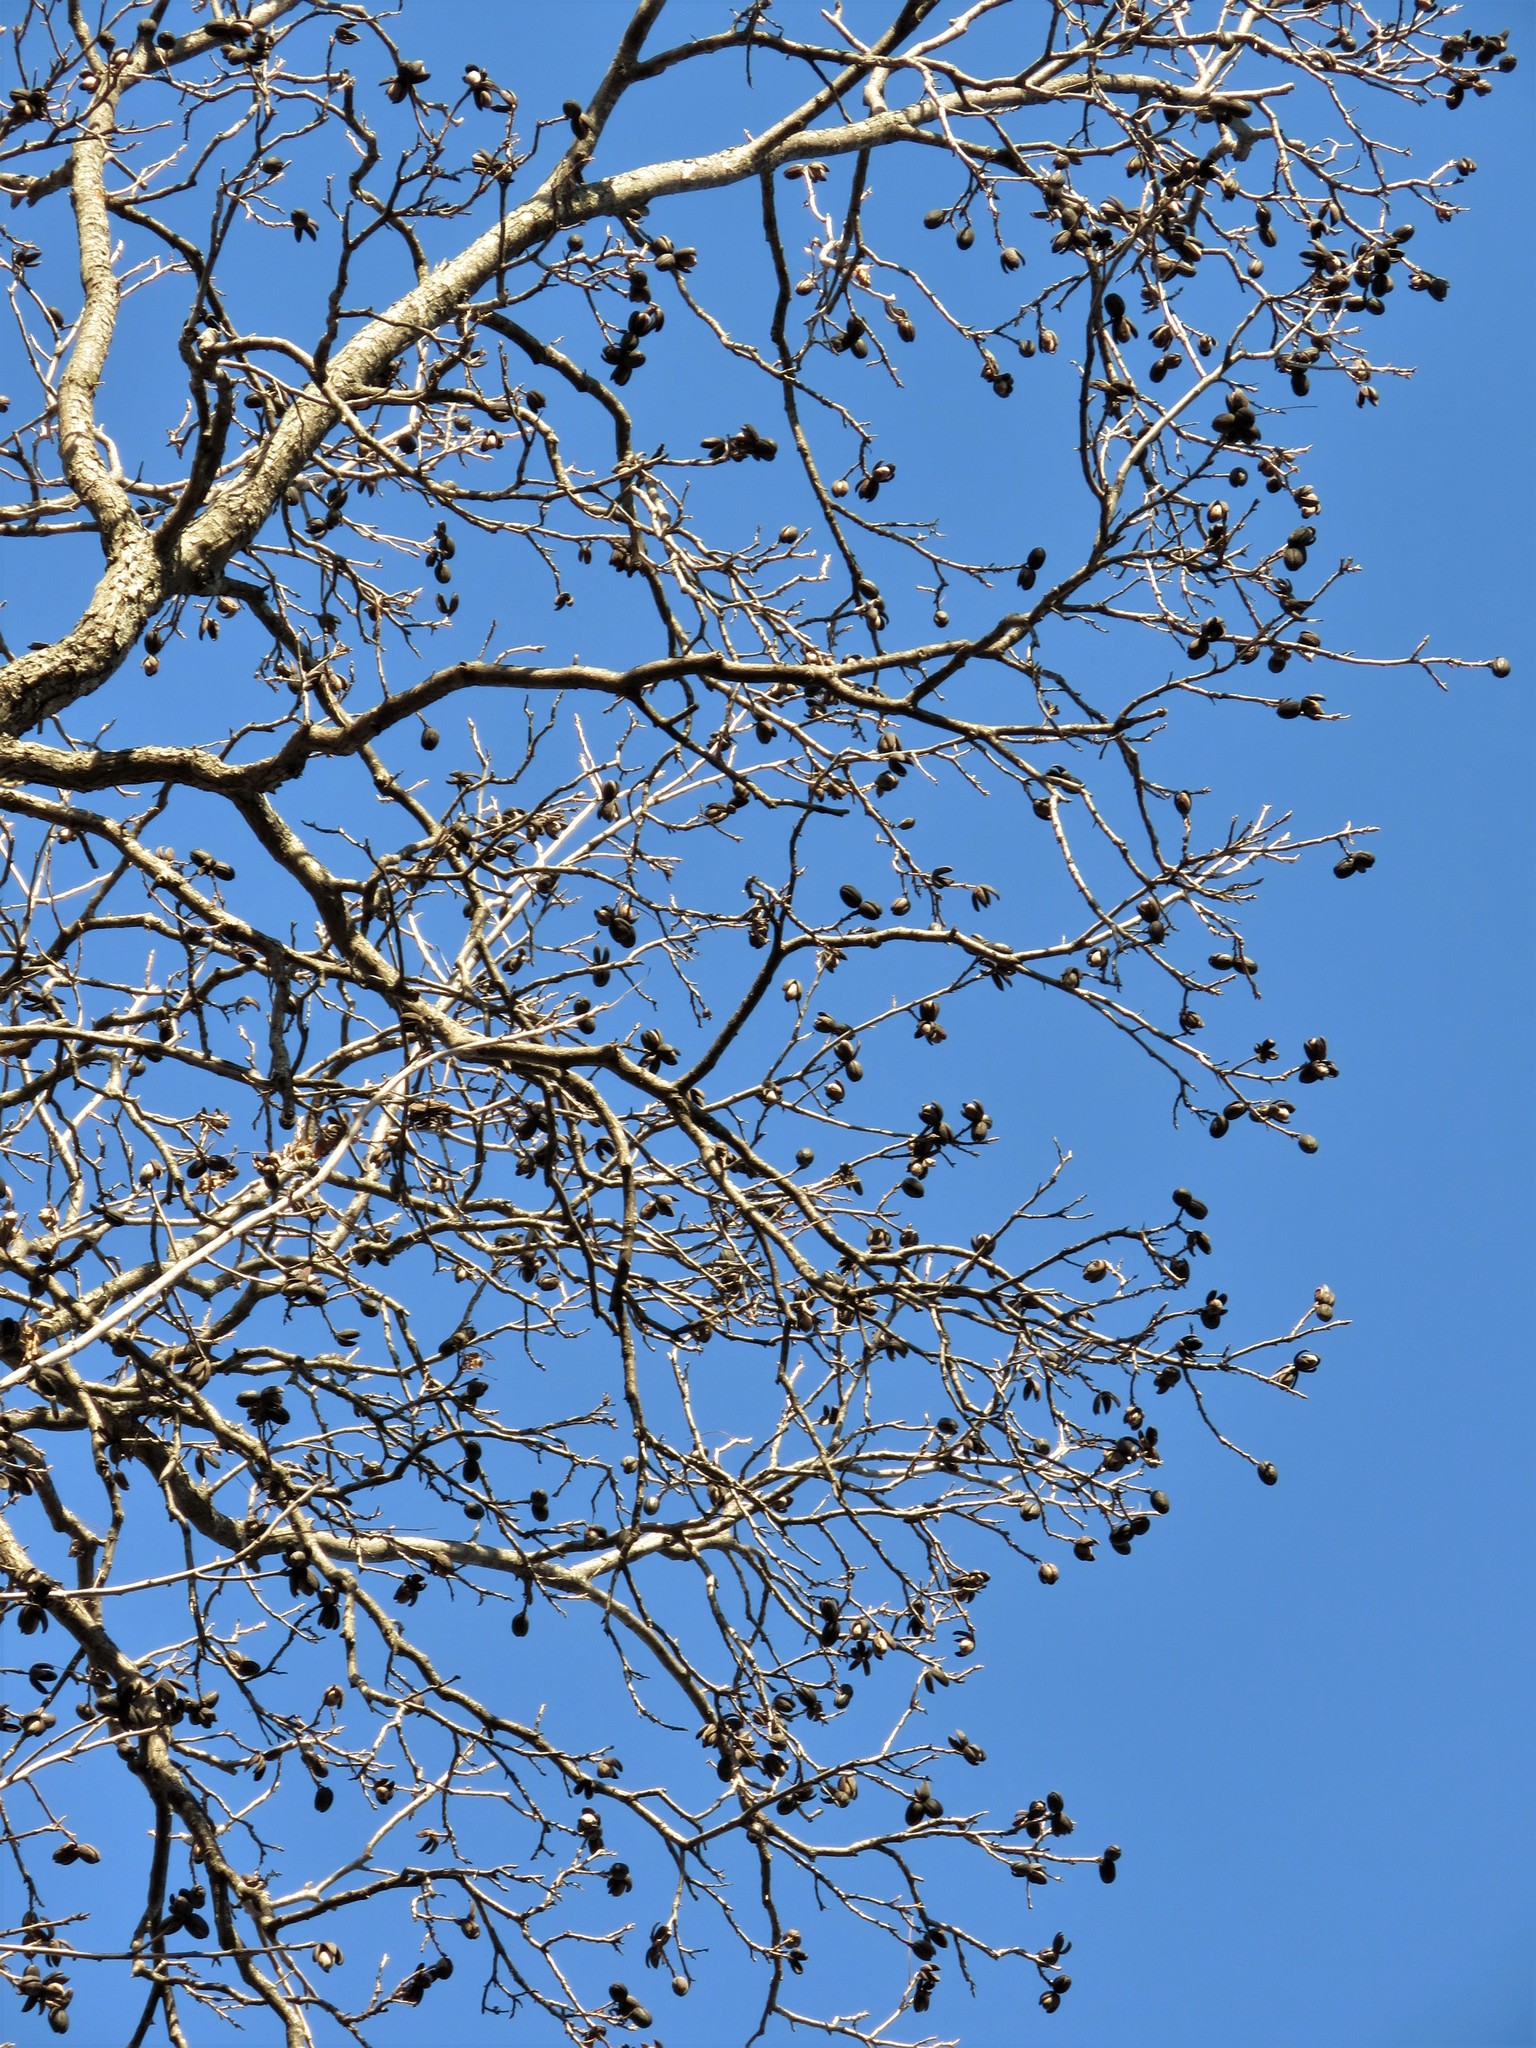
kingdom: Plantae
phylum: Tracheophyta
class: Magnoliopsida
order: Fagales
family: Juglandaceae
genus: Carya
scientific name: Carya illinoinensis
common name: Pecan
